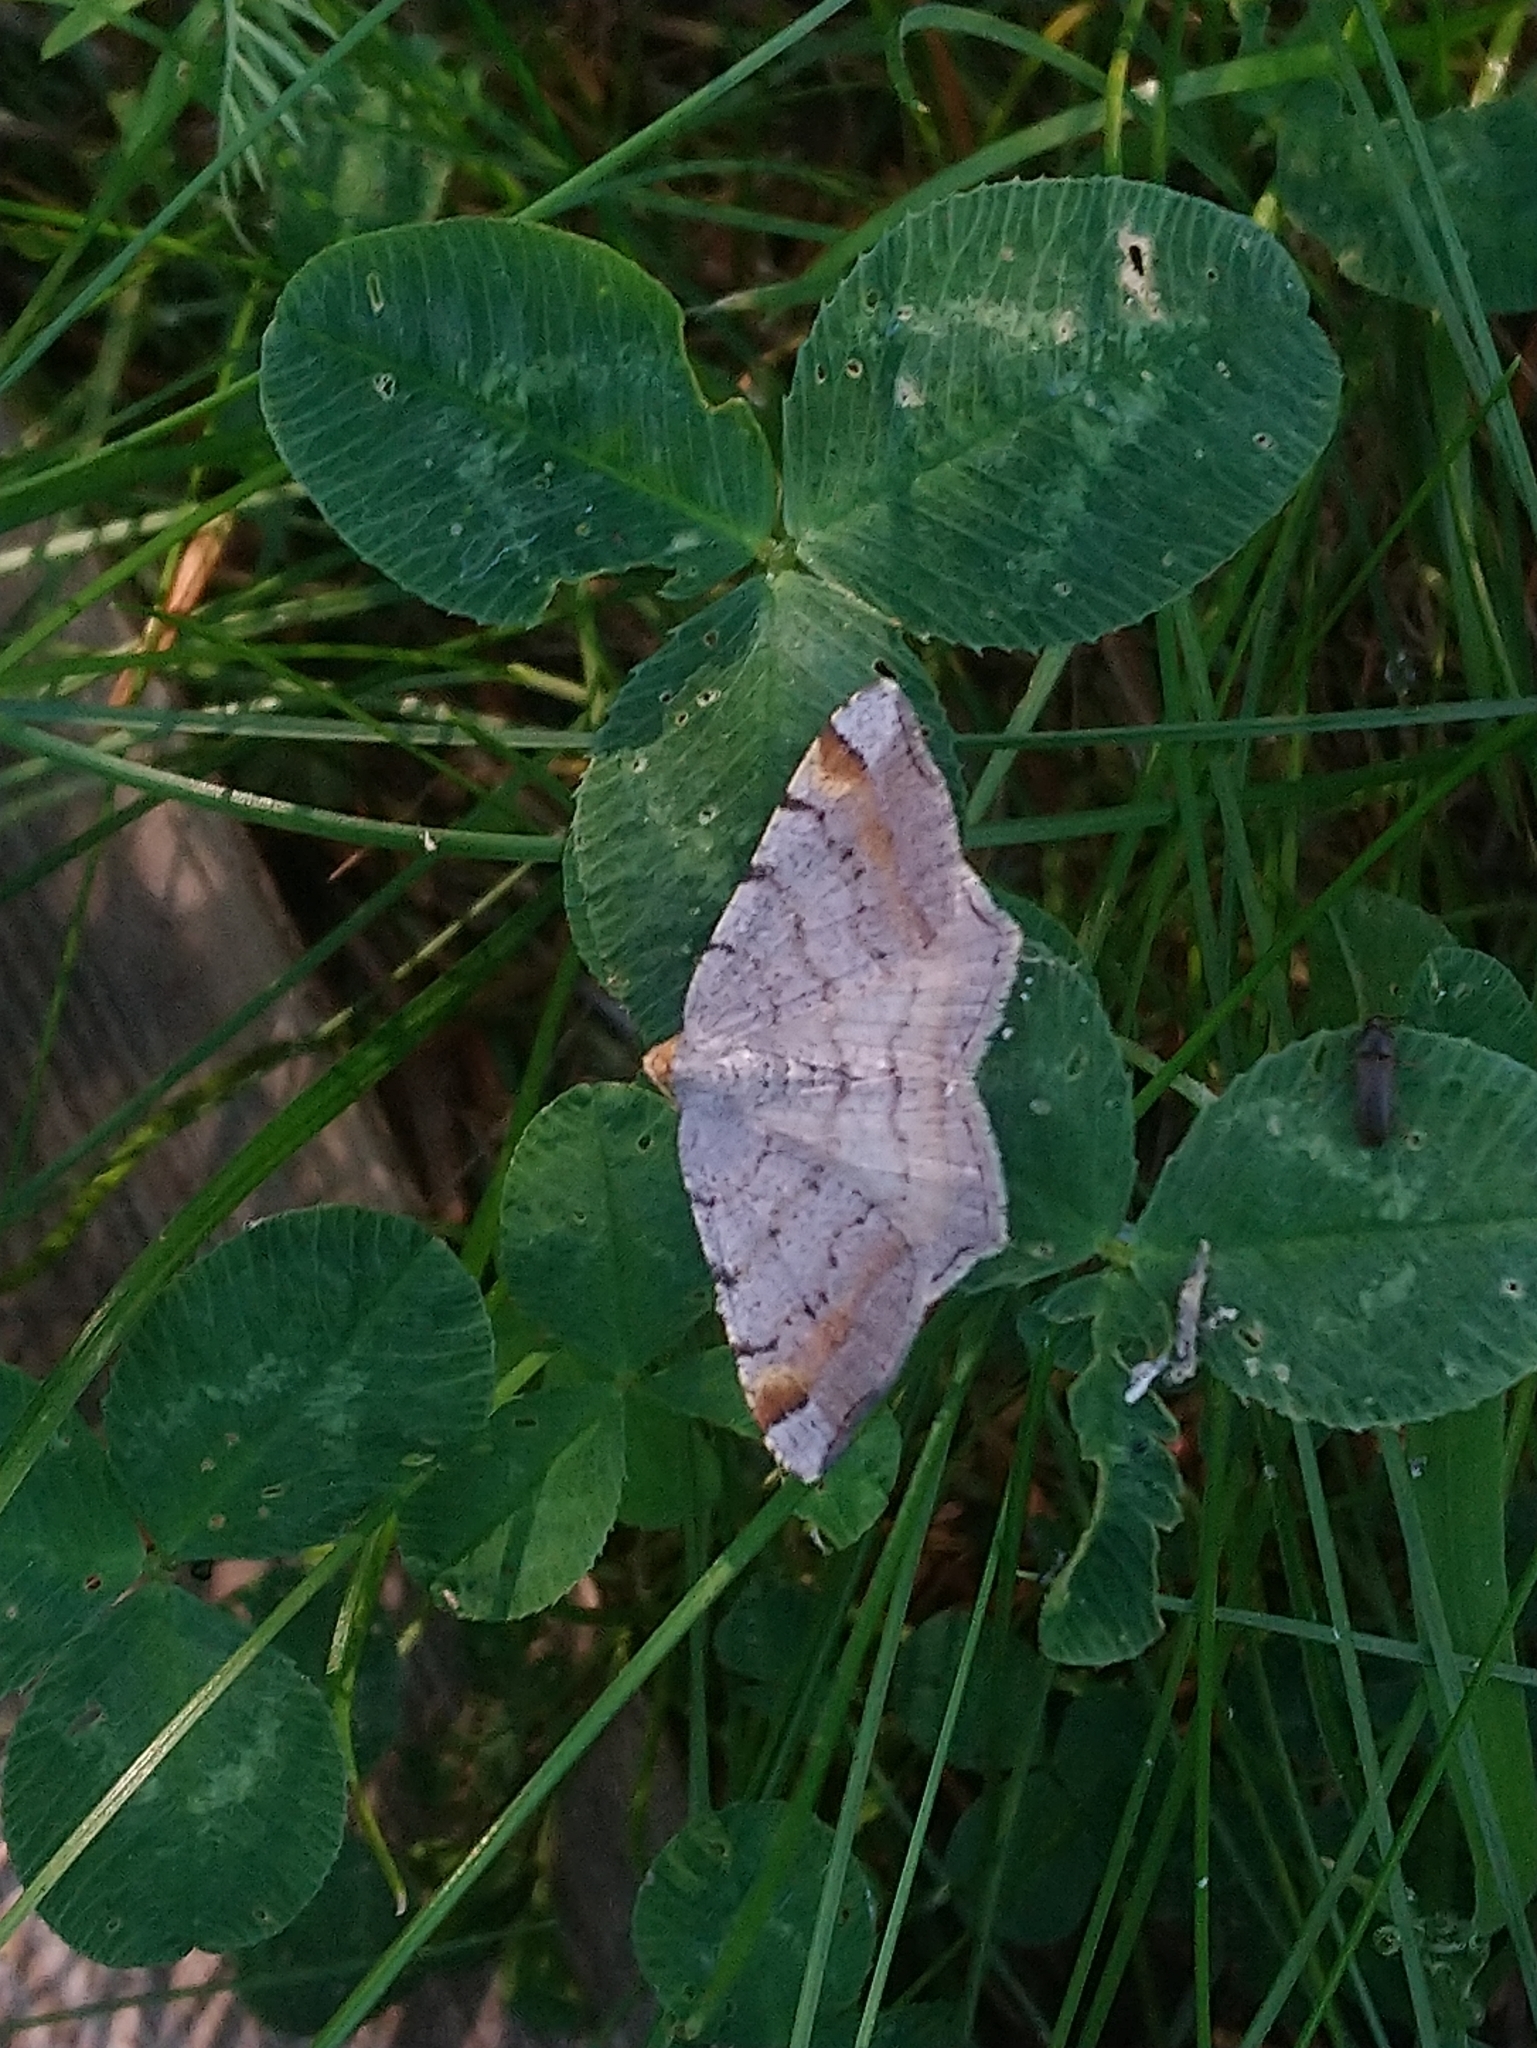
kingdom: Animalia
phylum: Arthropoda
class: Insecta
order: Lepidoptera
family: Geometridae
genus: Macaria
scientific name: Macaria liturata
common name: Tawny-barred angle
